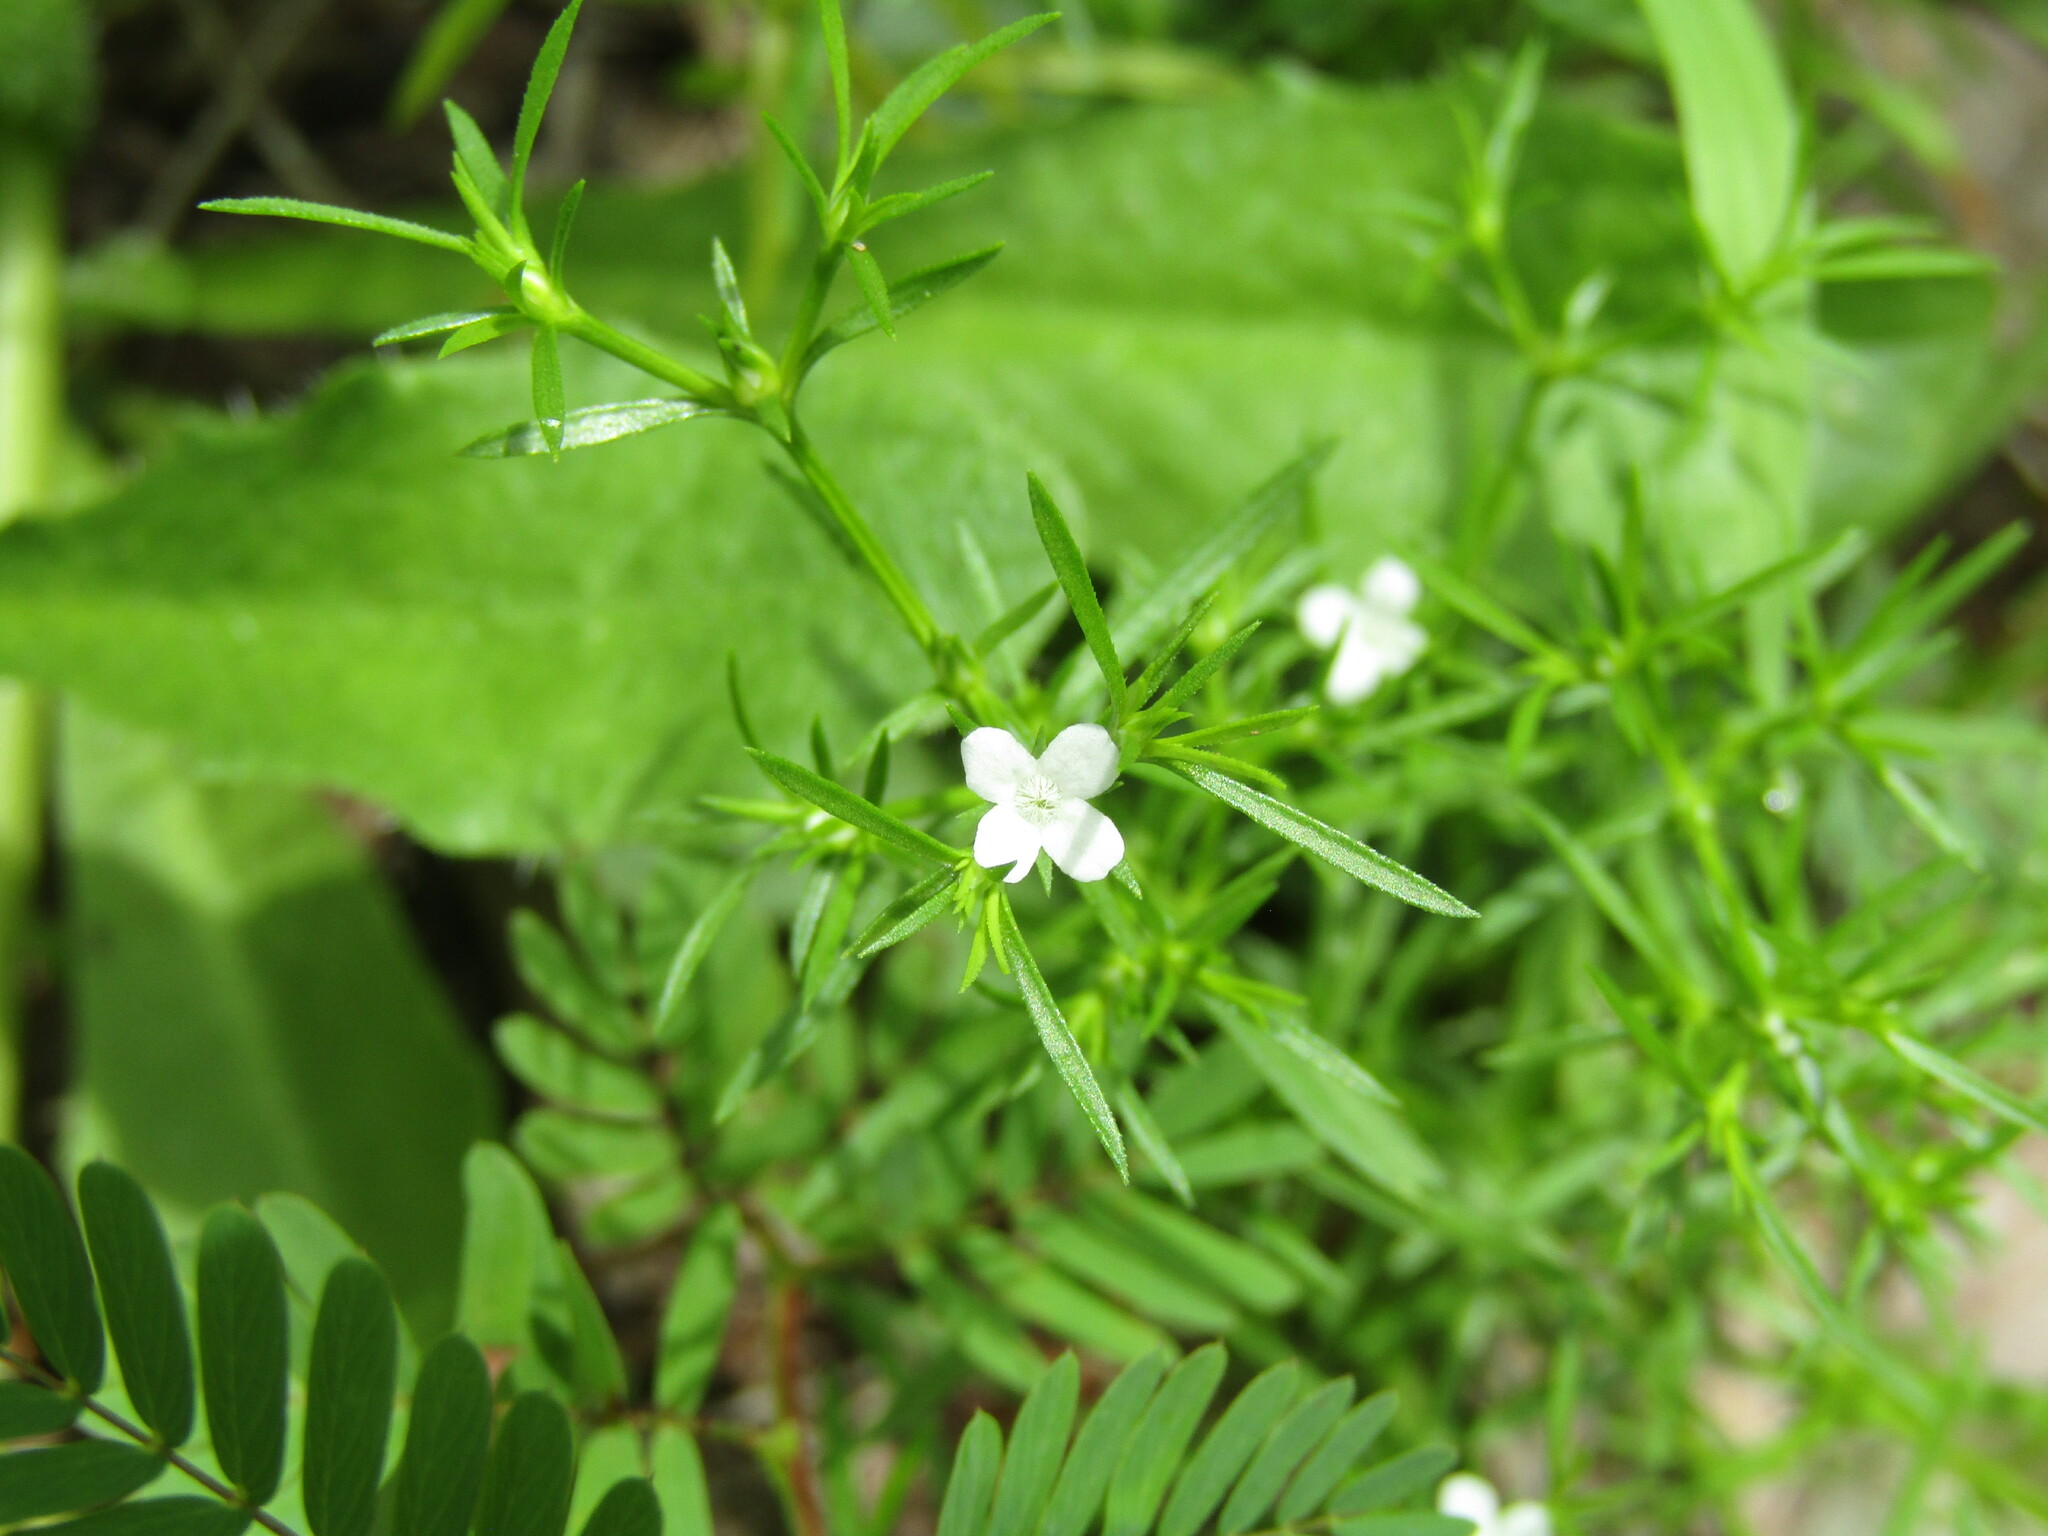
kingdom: Plantae
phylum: Tracheophyta
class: Magnoliopsida
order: Lamiales
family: Tetrachondraceae
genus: Polypremum
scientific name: Polypremum procumbens
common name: Juniper-leaf
